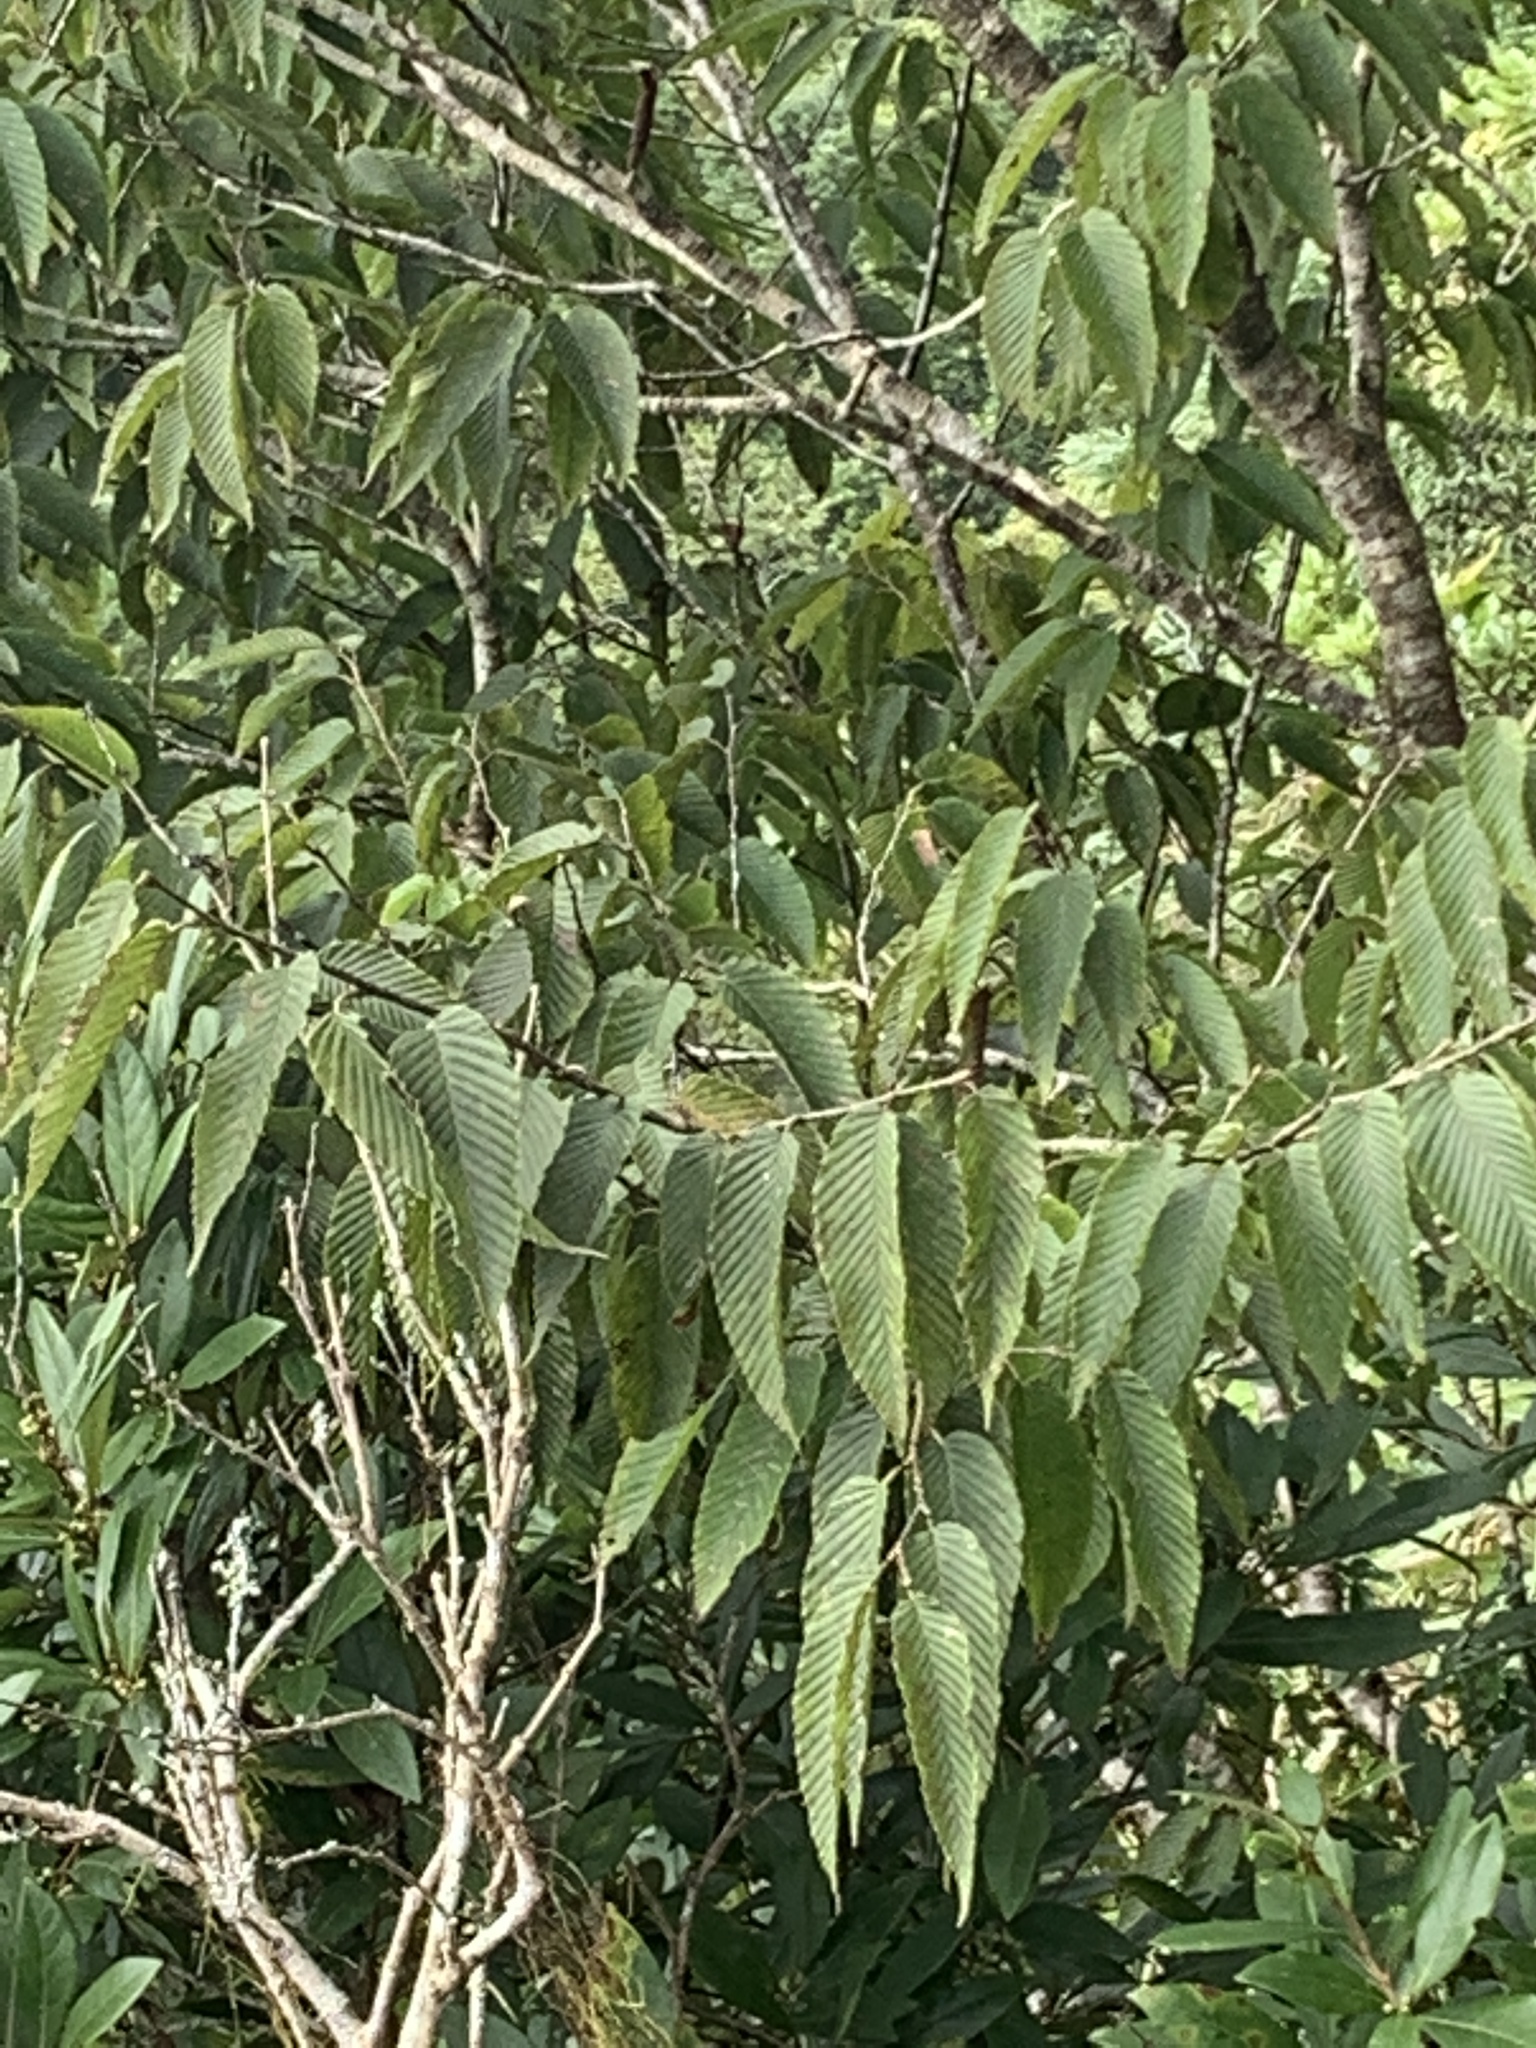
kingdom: Plantae
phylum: Tracheophyta
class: Magnoliopsida
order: Fagales
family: Betulaceae
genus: Carpinus
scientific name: Carpinus rankanensis
